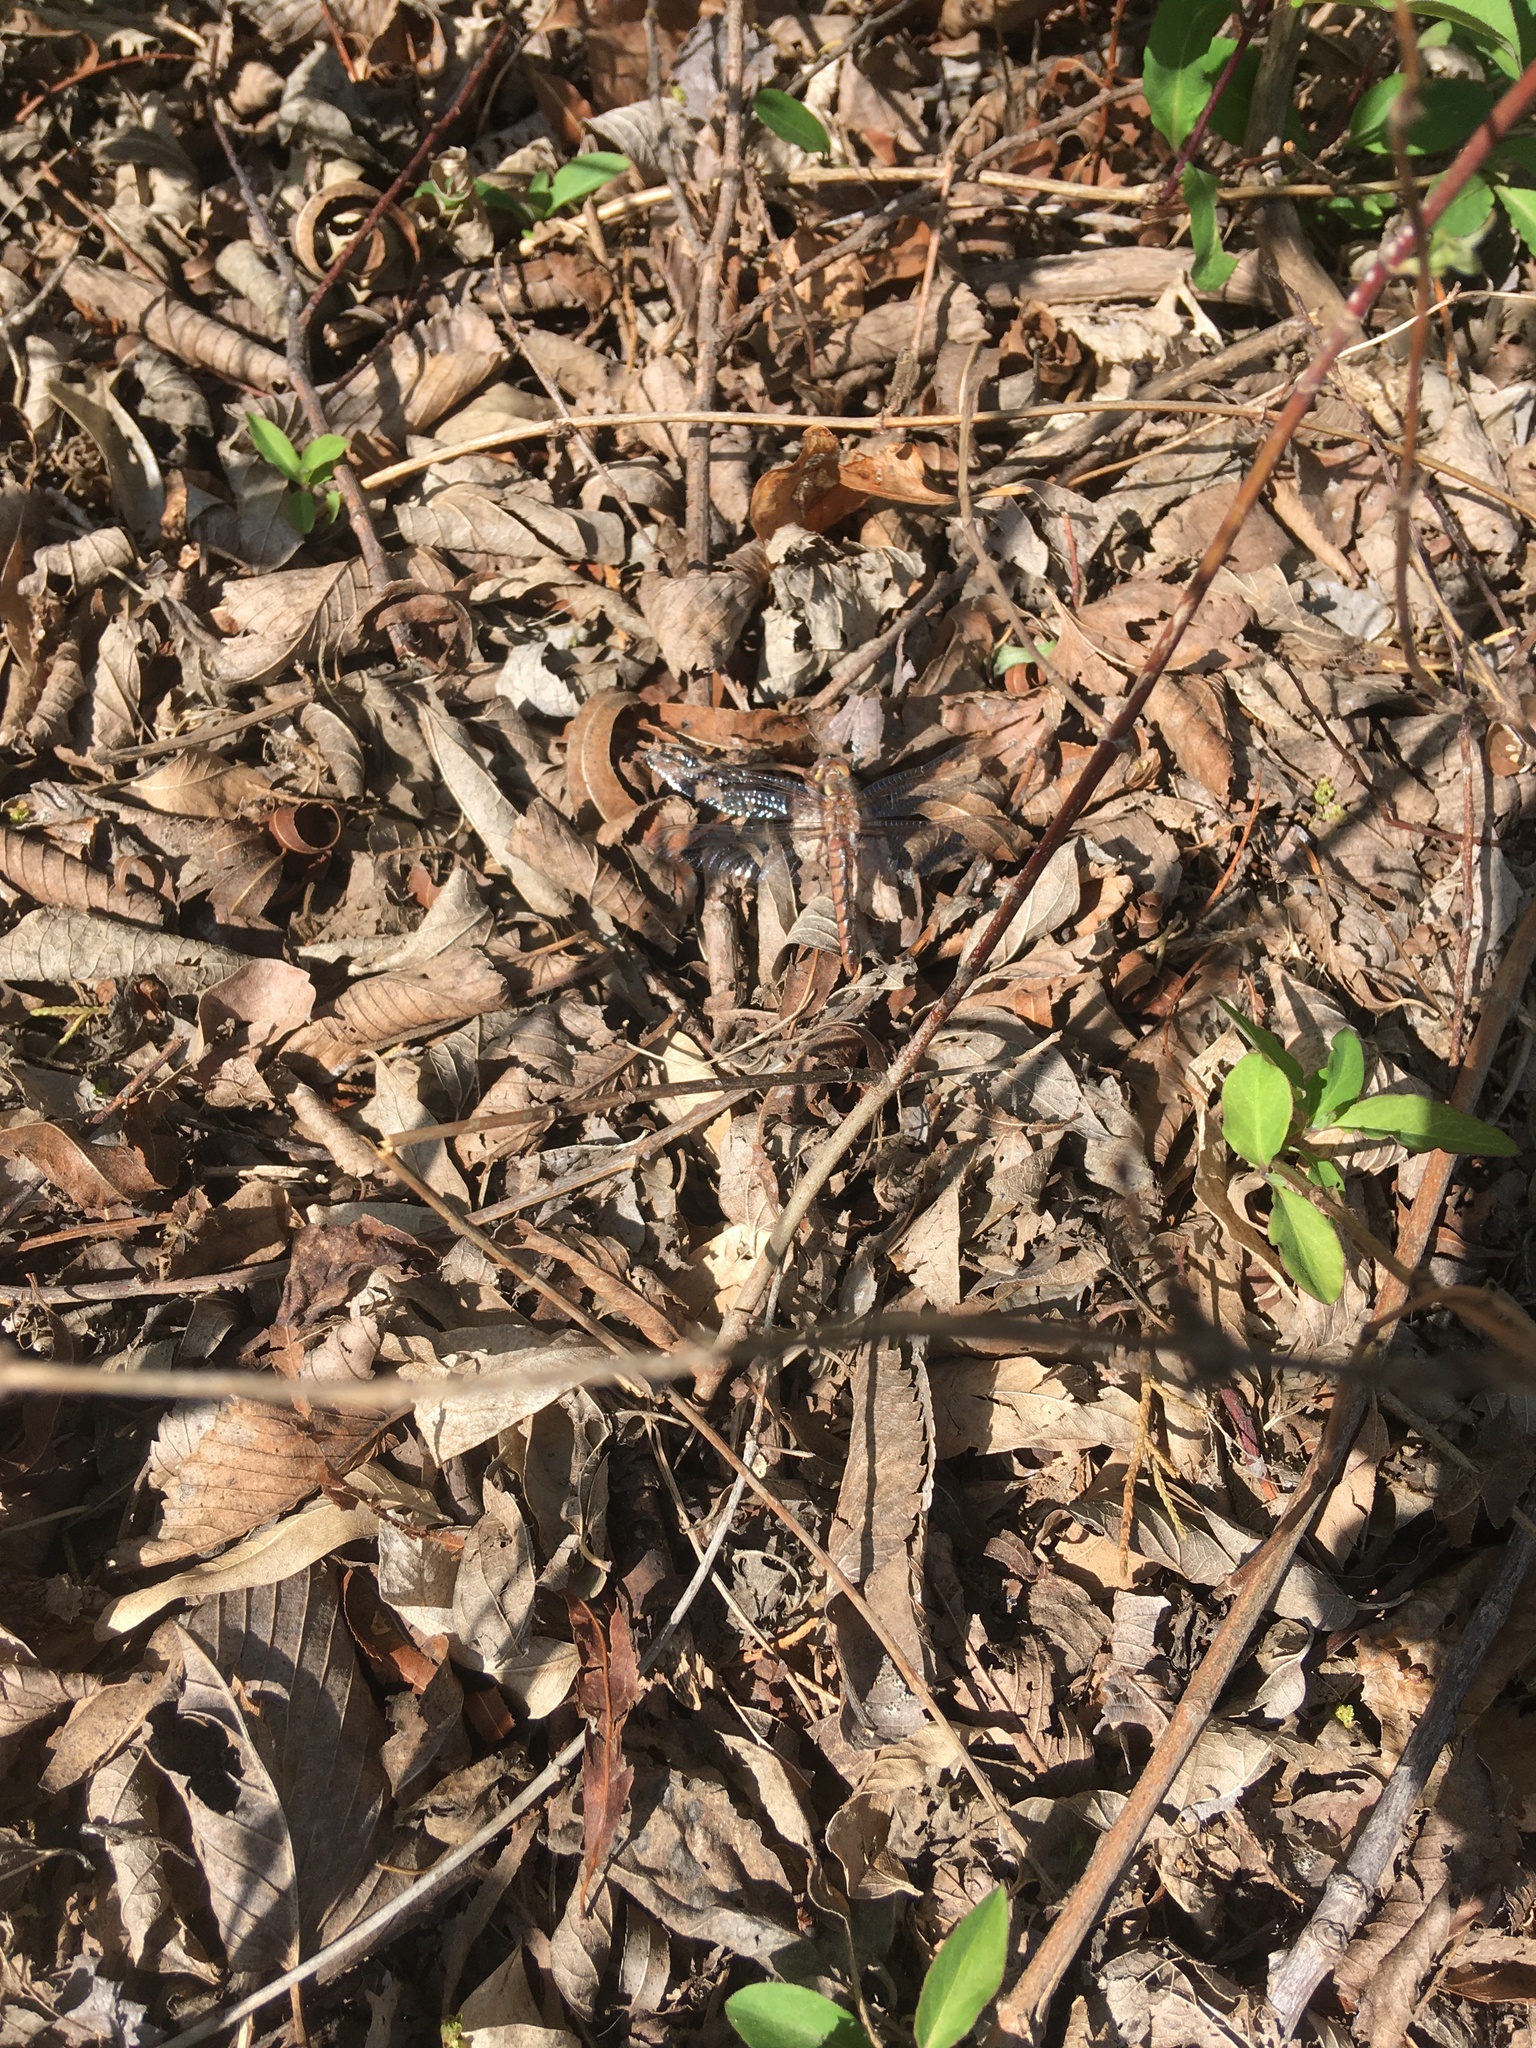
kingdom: Animalia
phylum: Arthropoda
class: Insecta
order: Odonata
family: Libellulidae
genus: Ladona
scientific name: Ladona deplanata
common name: Blue corporal
